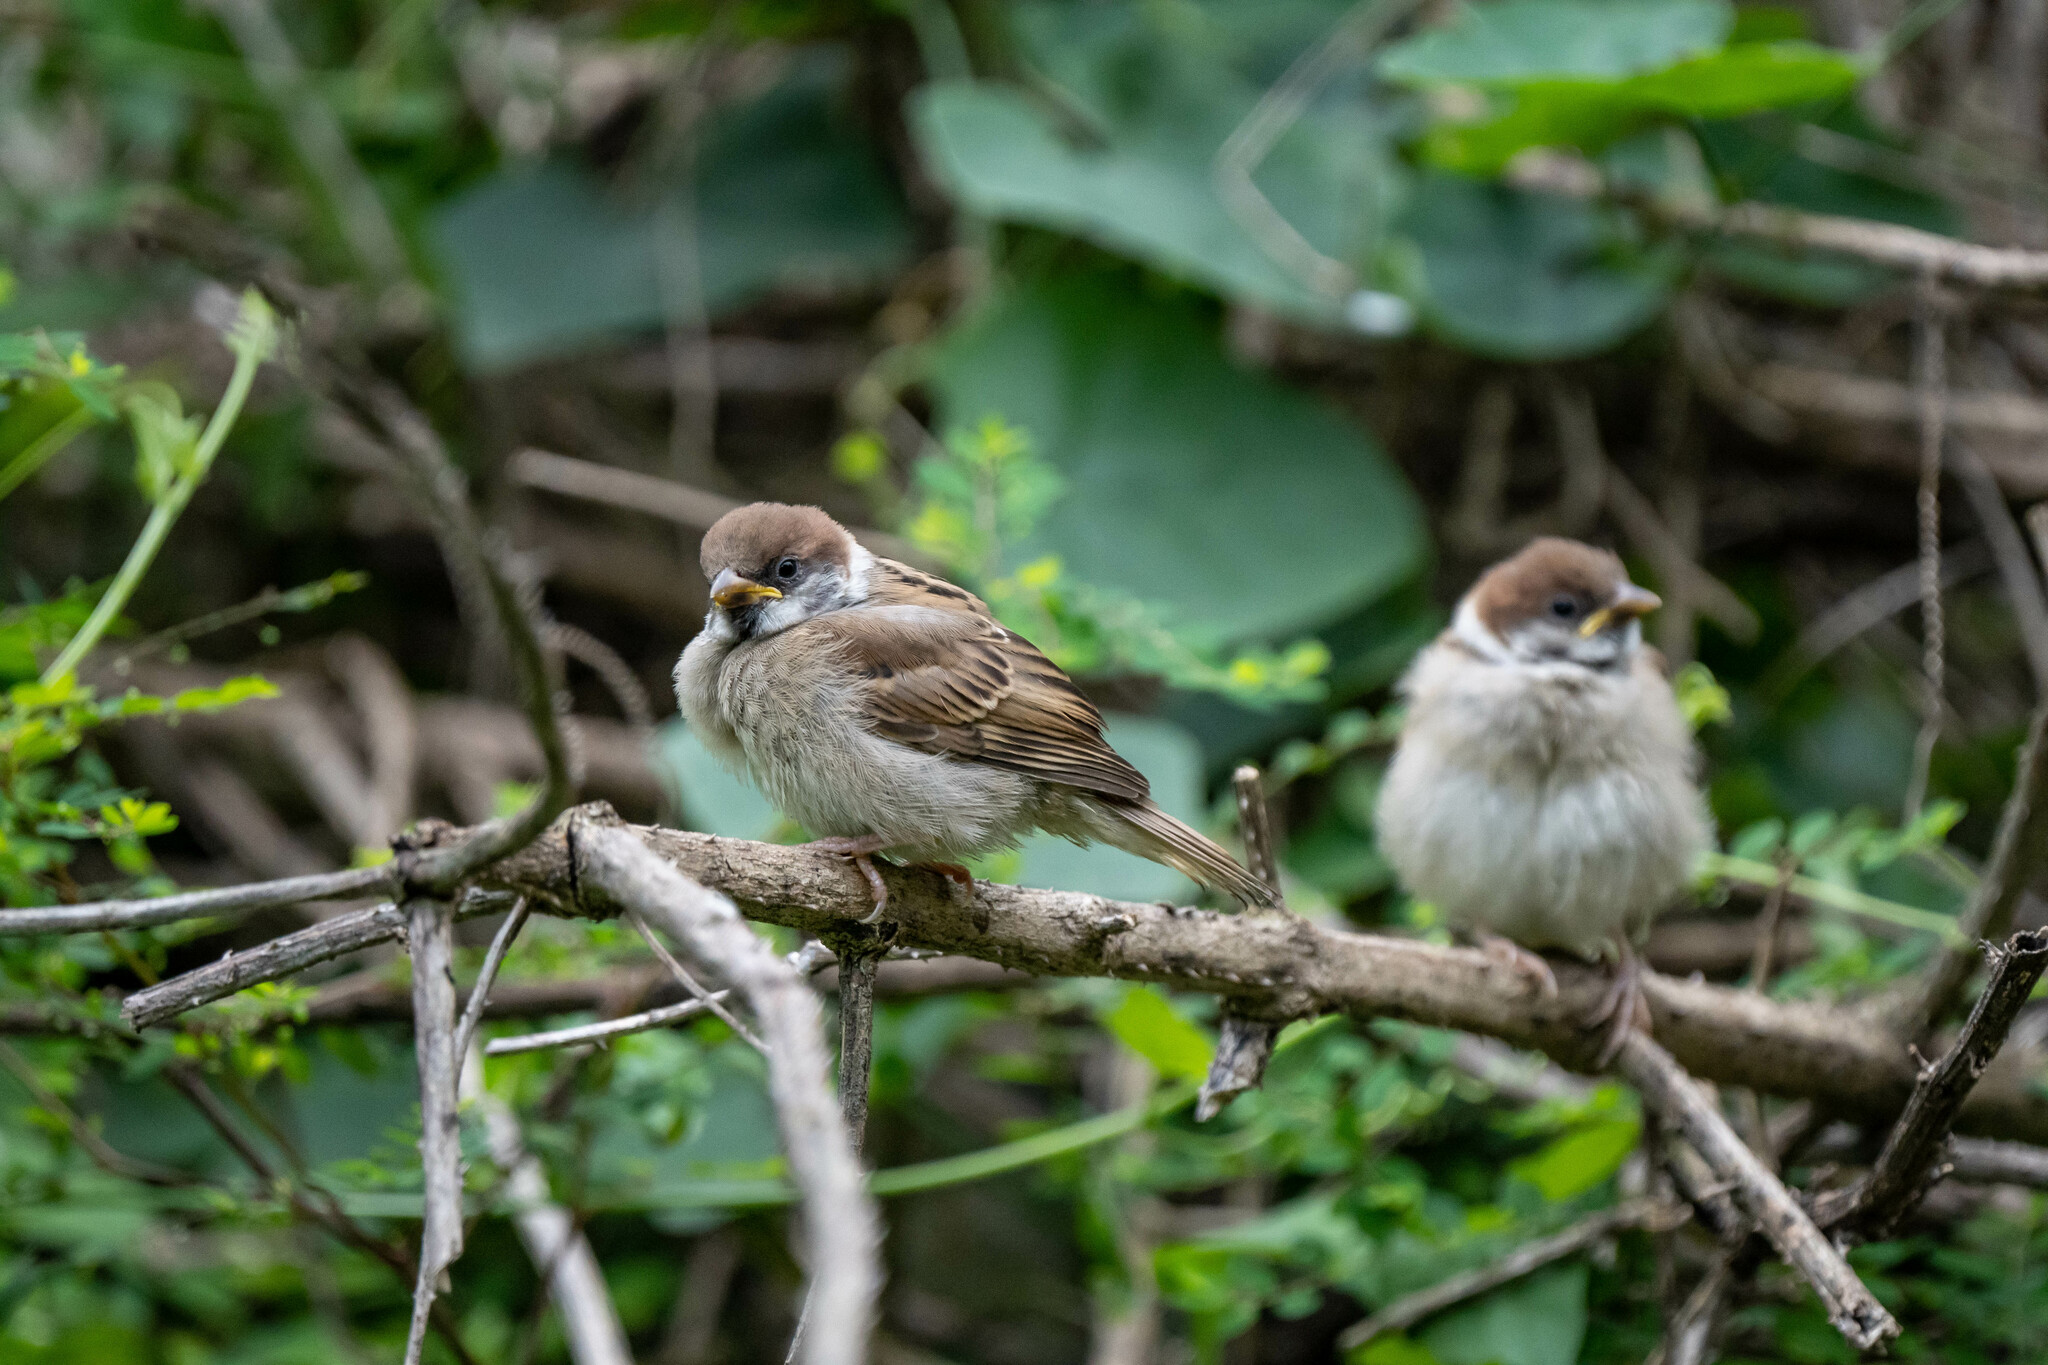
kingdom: Animalia
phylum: Chordata
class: Aves
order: Passeriformes
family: Passeridae
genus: Passer
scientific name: Passer montanus
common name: Eurasian tree sparrow
